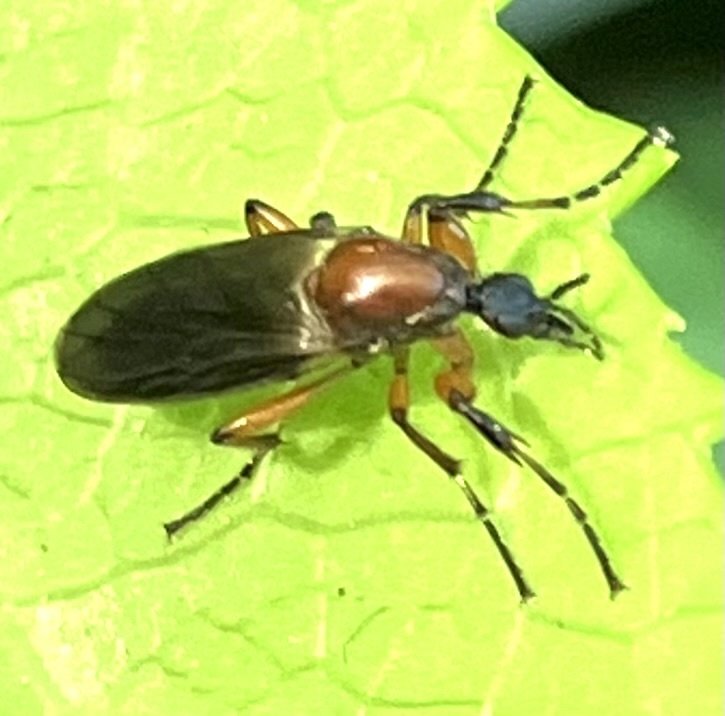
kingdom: Animalia
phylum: Arthropoda
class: Insecta
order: Diptera
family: Bibionidae
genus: Bibio
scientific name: Bibio articulatus
